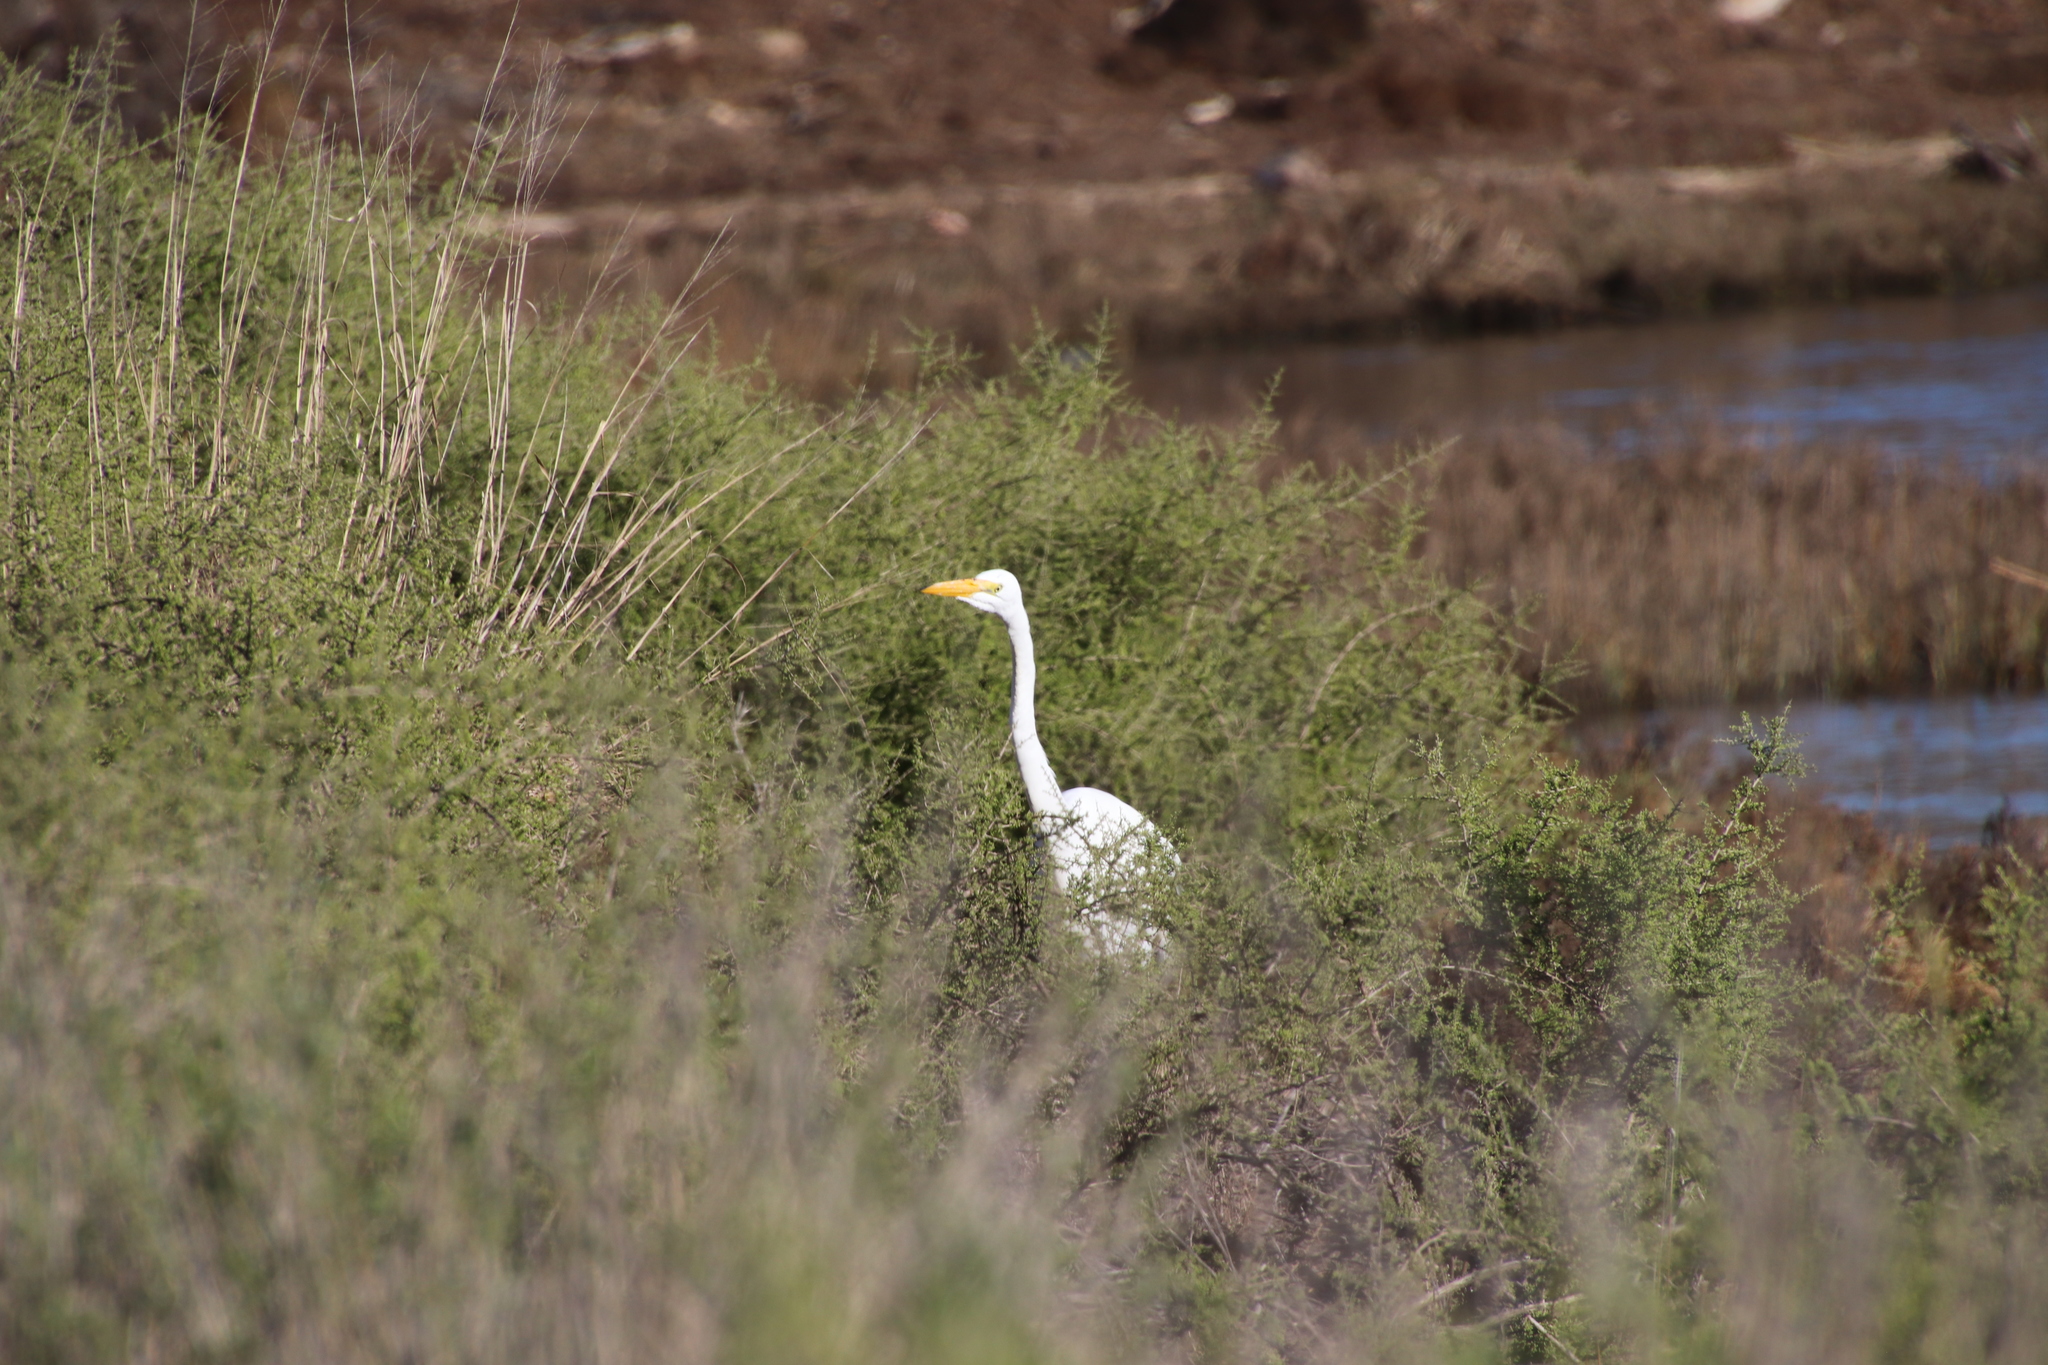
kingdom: Animalia
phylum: Chordata
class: Aves
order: Pelecaniformes
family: Ardeidae
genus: Ardea
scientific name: Ardea alba
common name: Great egret
